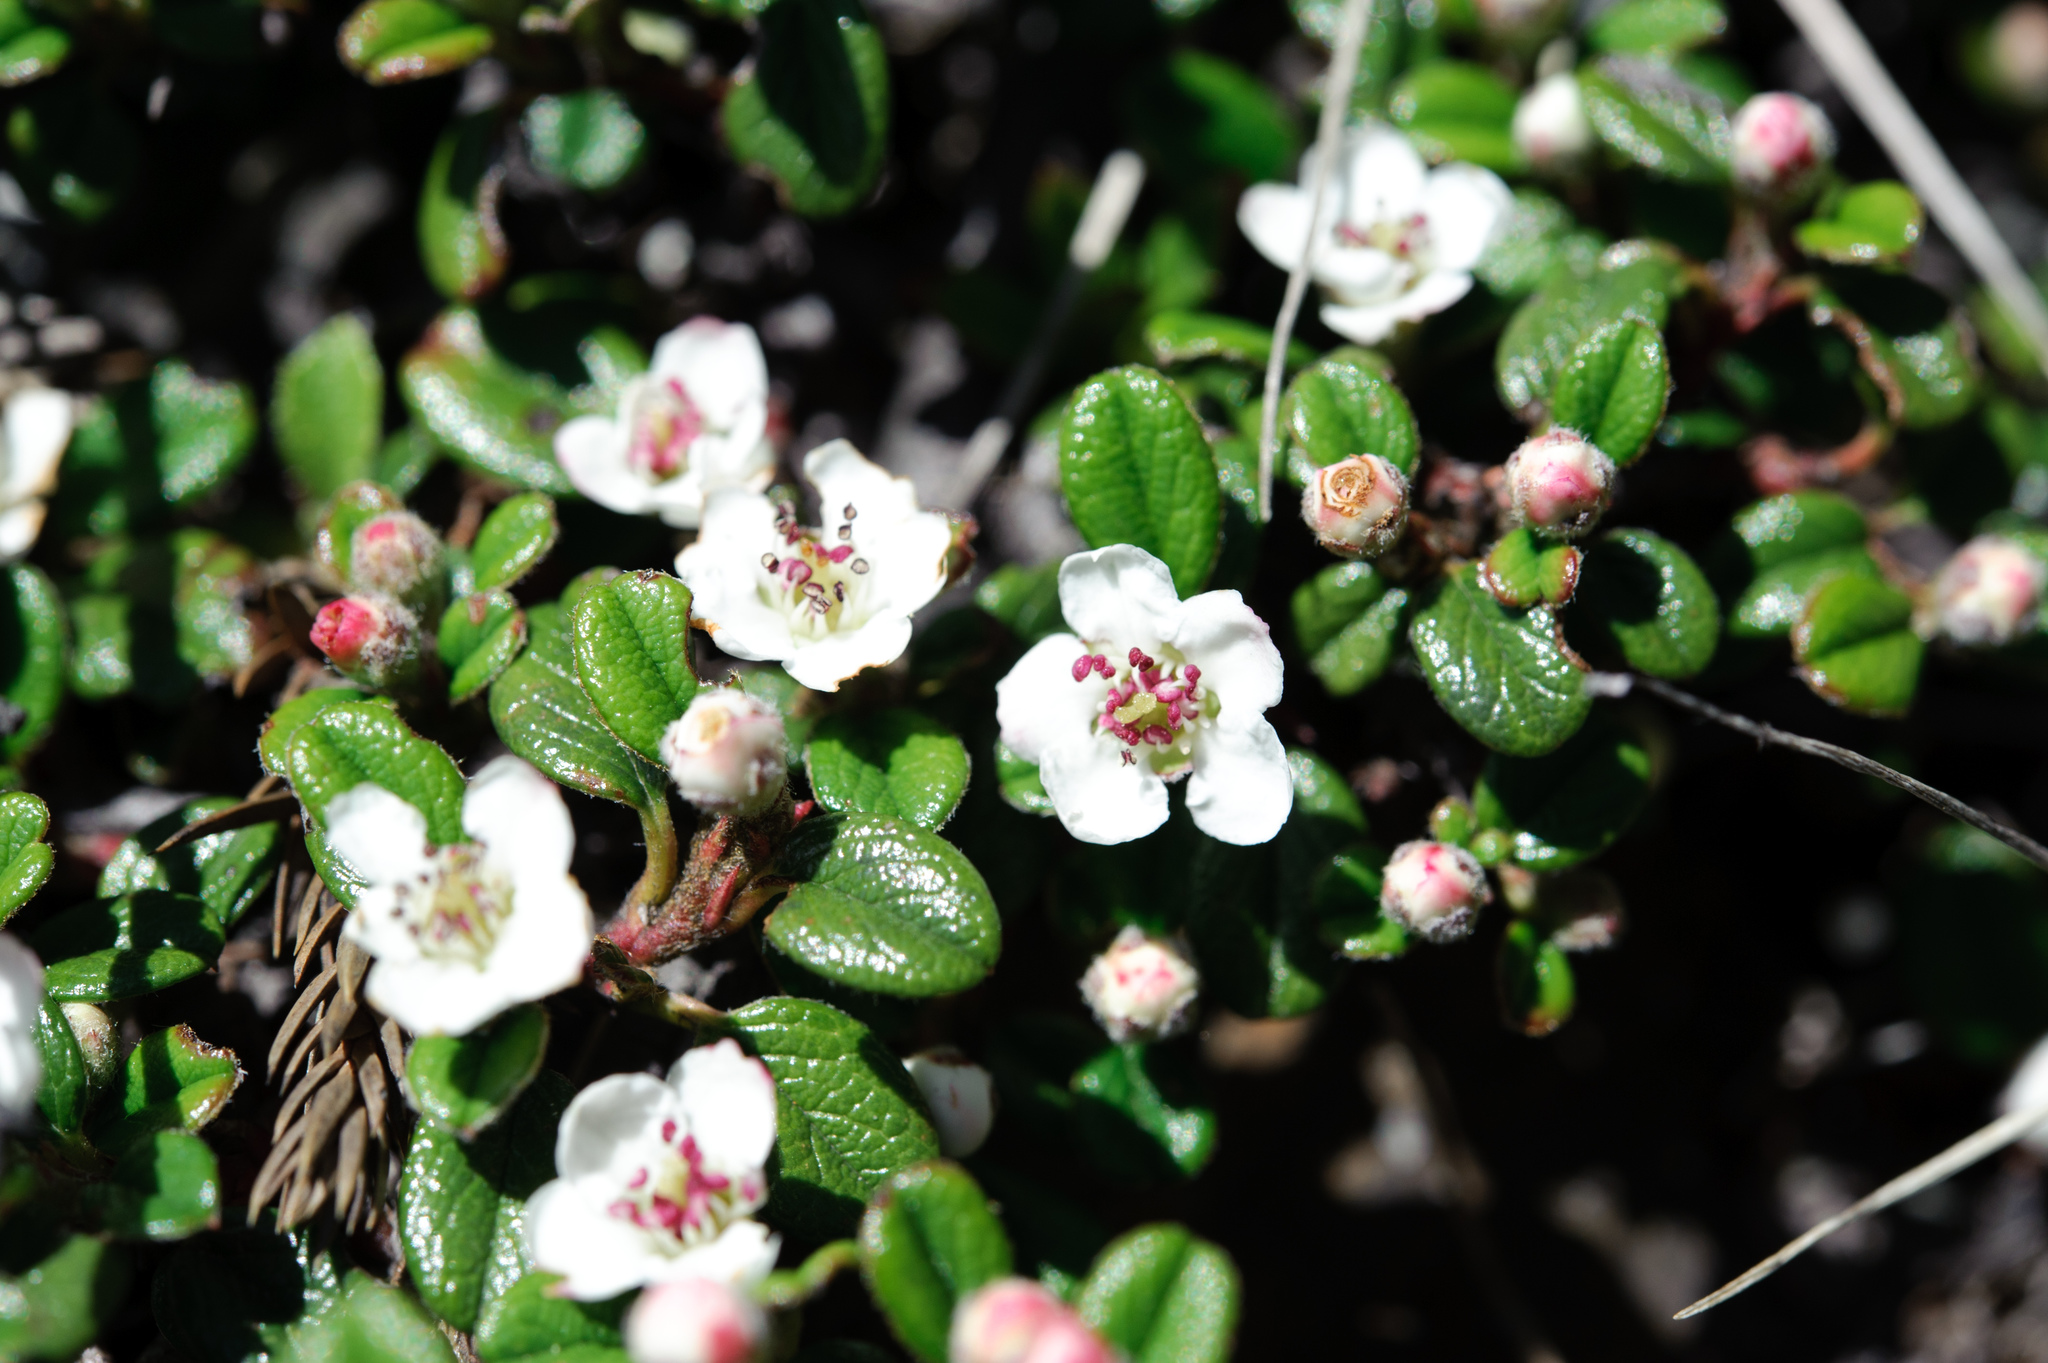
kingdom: Plantae
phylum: Tracheophyta
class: Magnoliopsida
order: Rosales
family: Rosaceae
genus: Cotoneaster
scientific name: Cotoneaster morrisonensis
